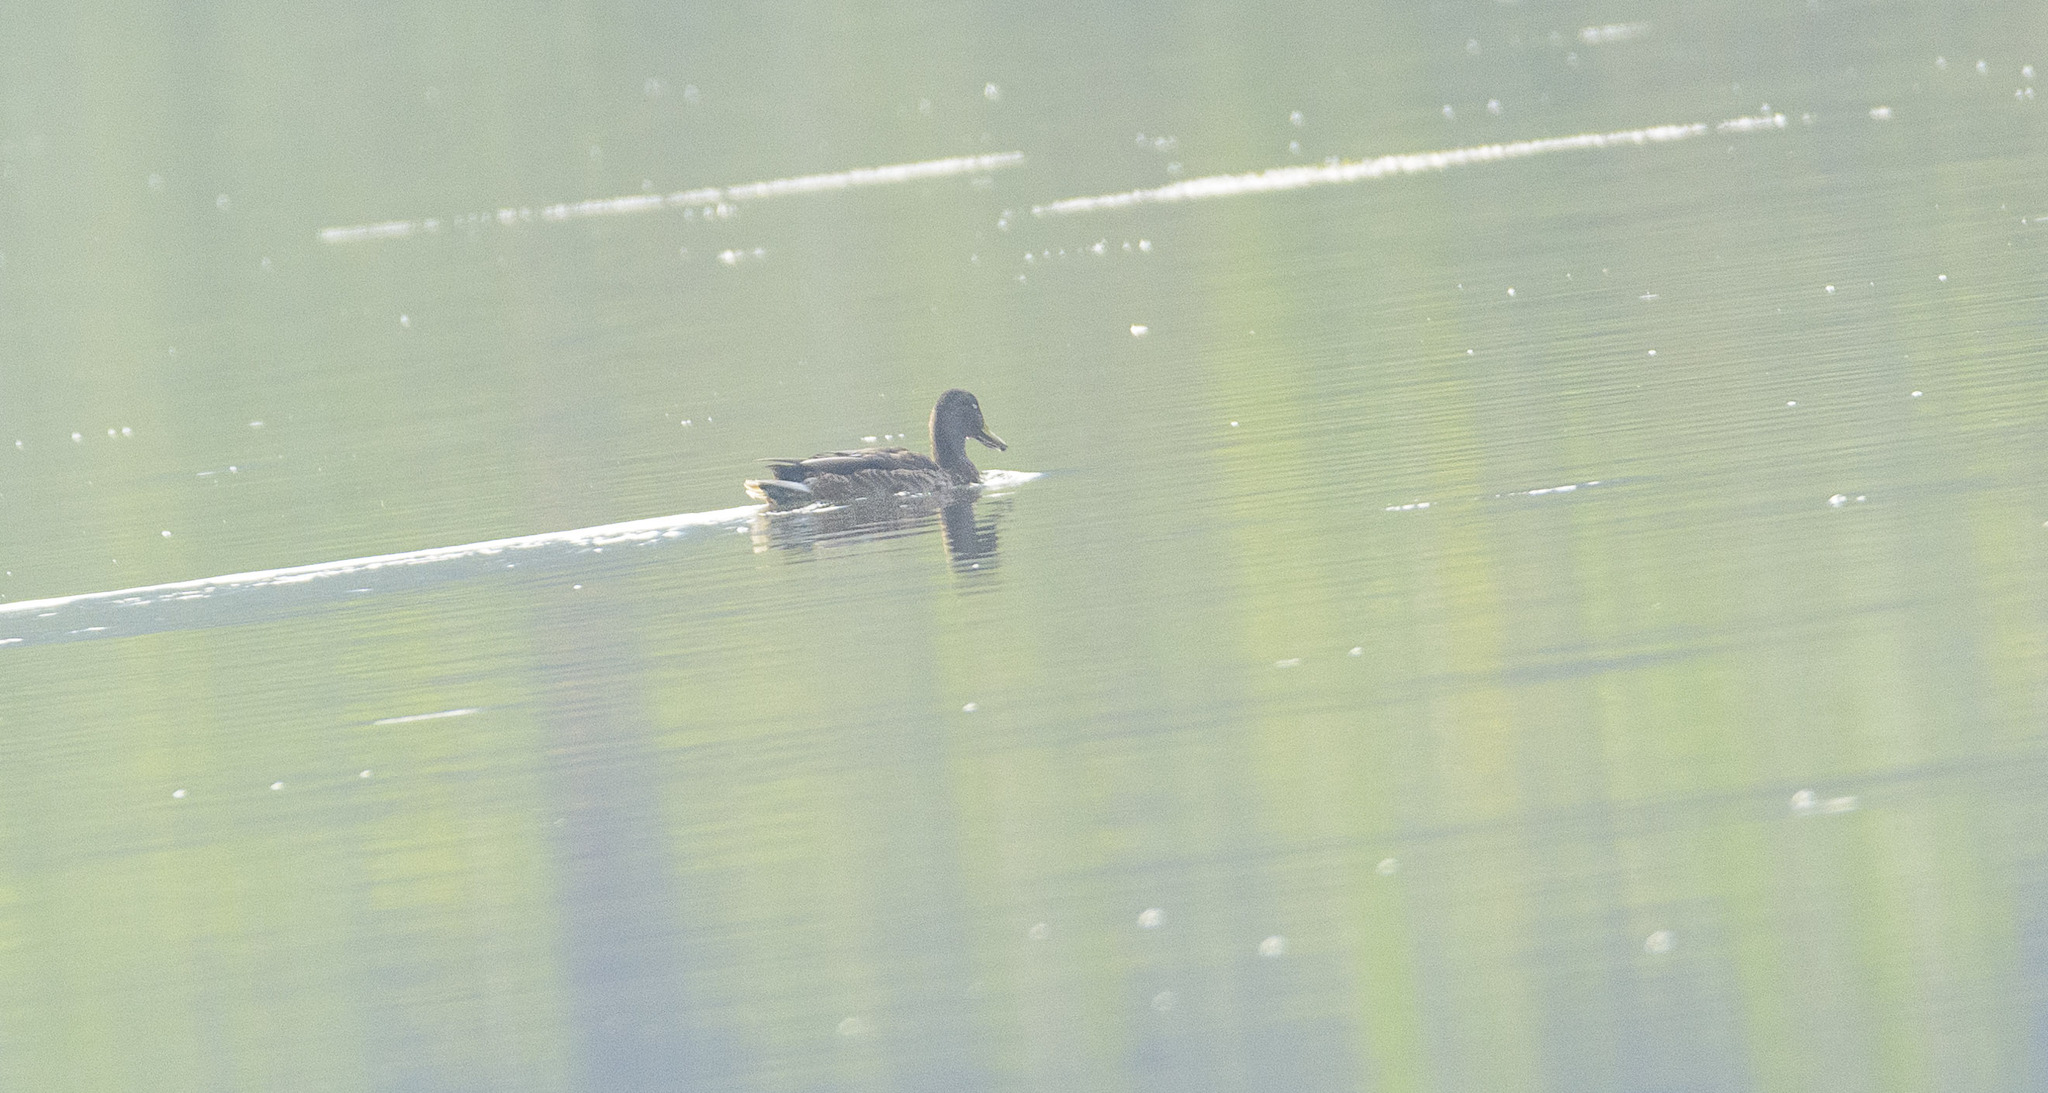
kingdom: Animalia
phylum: Chordata
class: Aves
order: Anseriformes
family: Anatidae
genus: Anas
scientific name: Anas platyrhynchos
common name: Mallard
